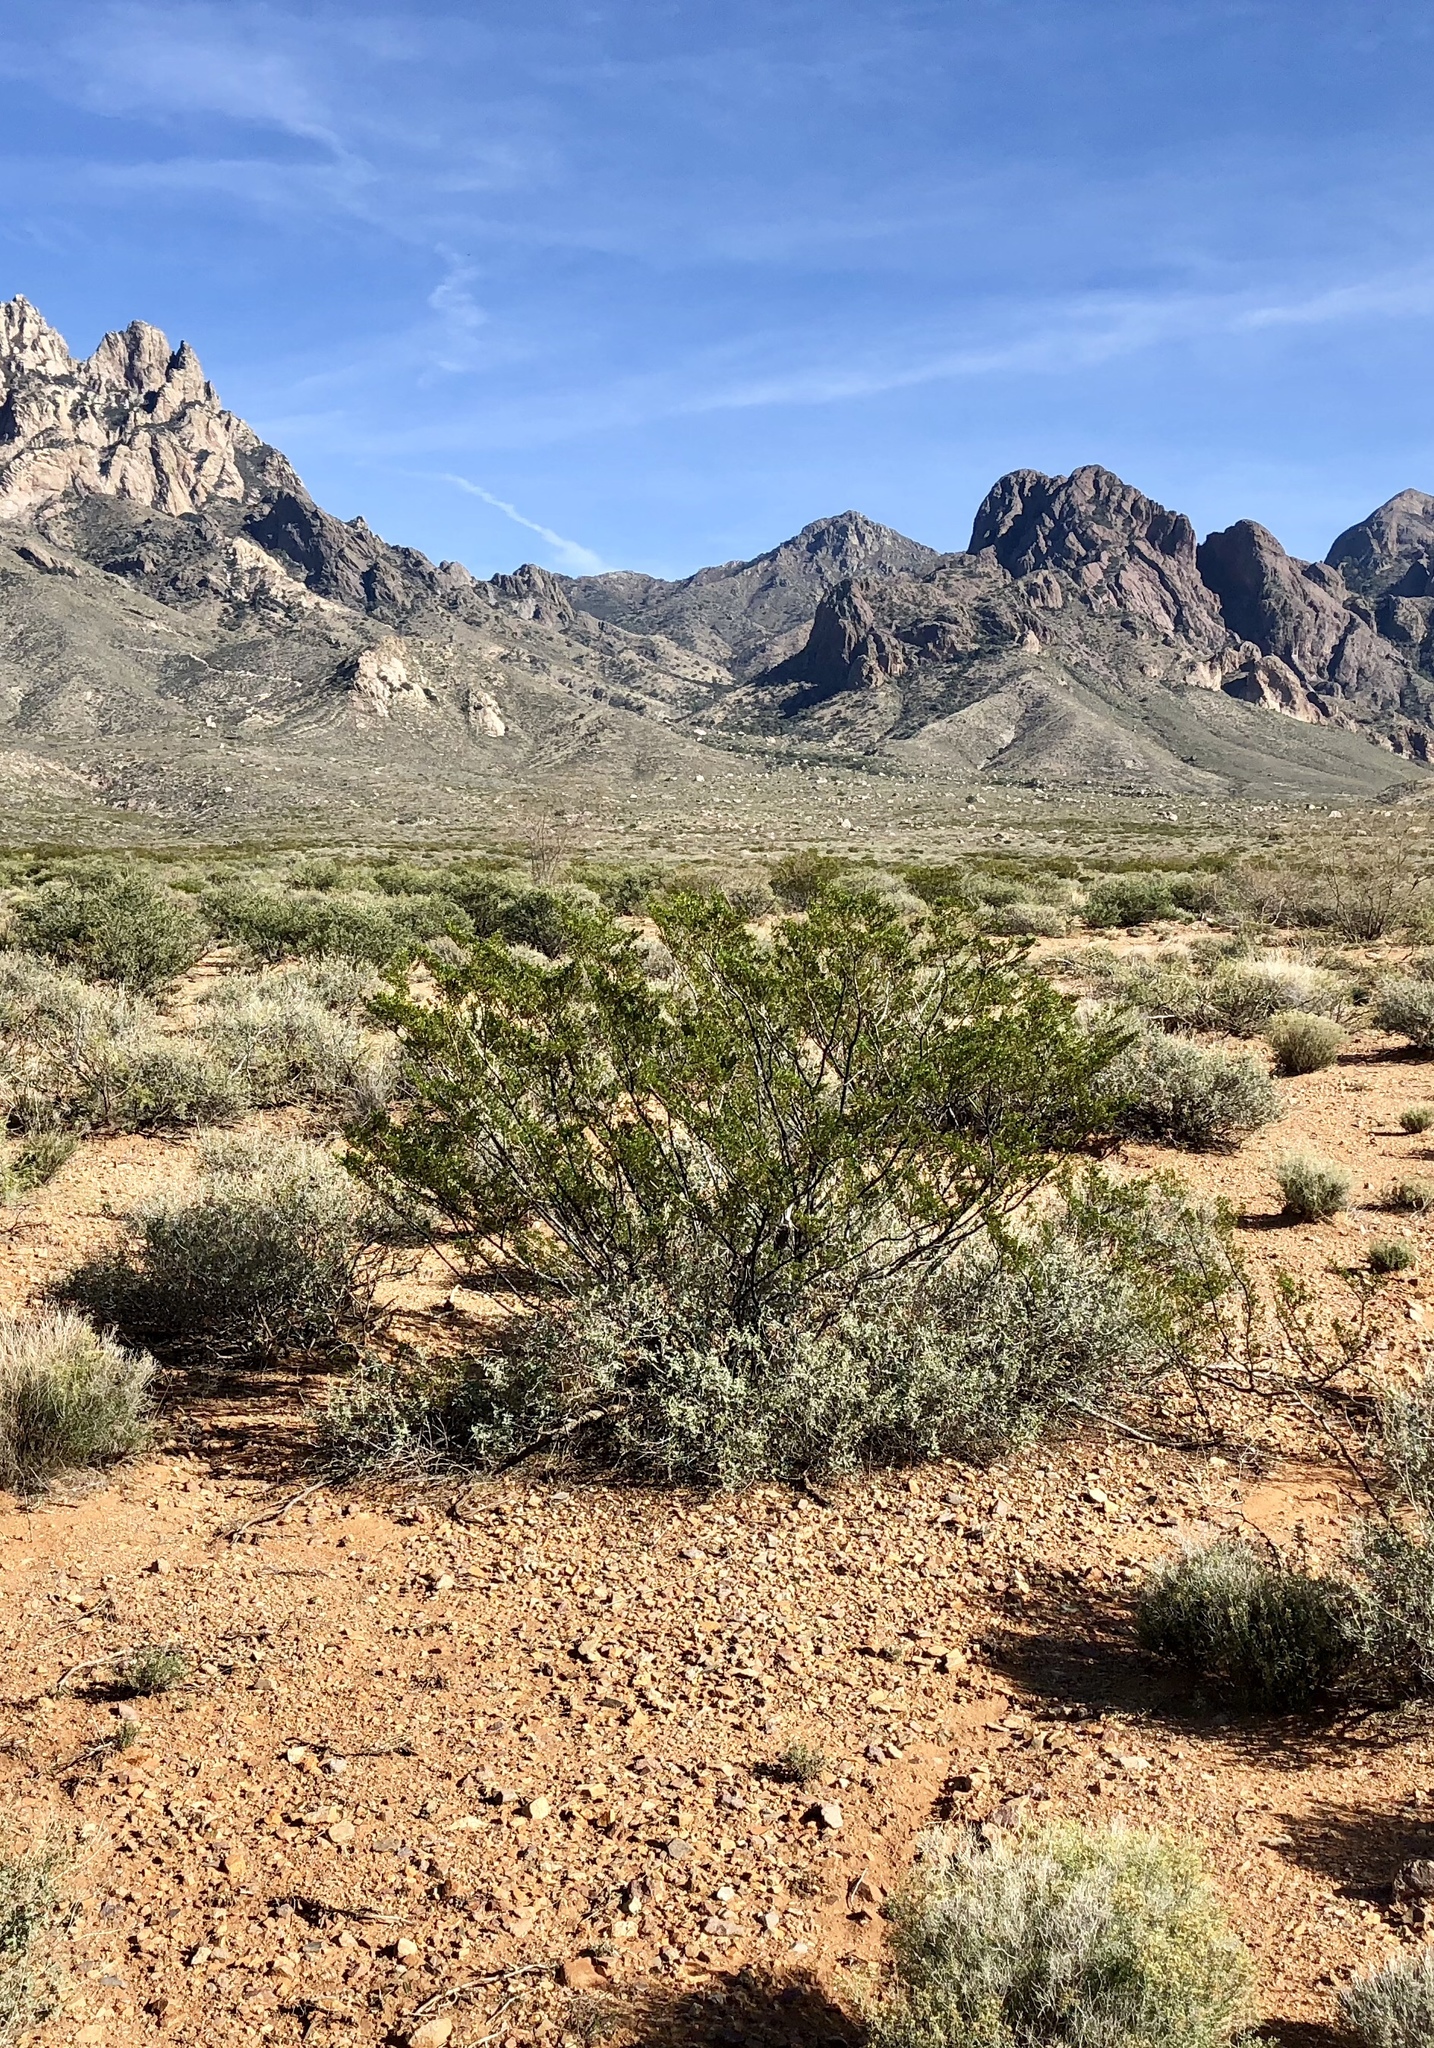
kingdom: Plantae
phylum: Tracheophyta
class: Magnoliopsida
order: Zygophyllales
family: Zygophyllaceae
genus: Larrea
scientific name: Larrea tridentata
